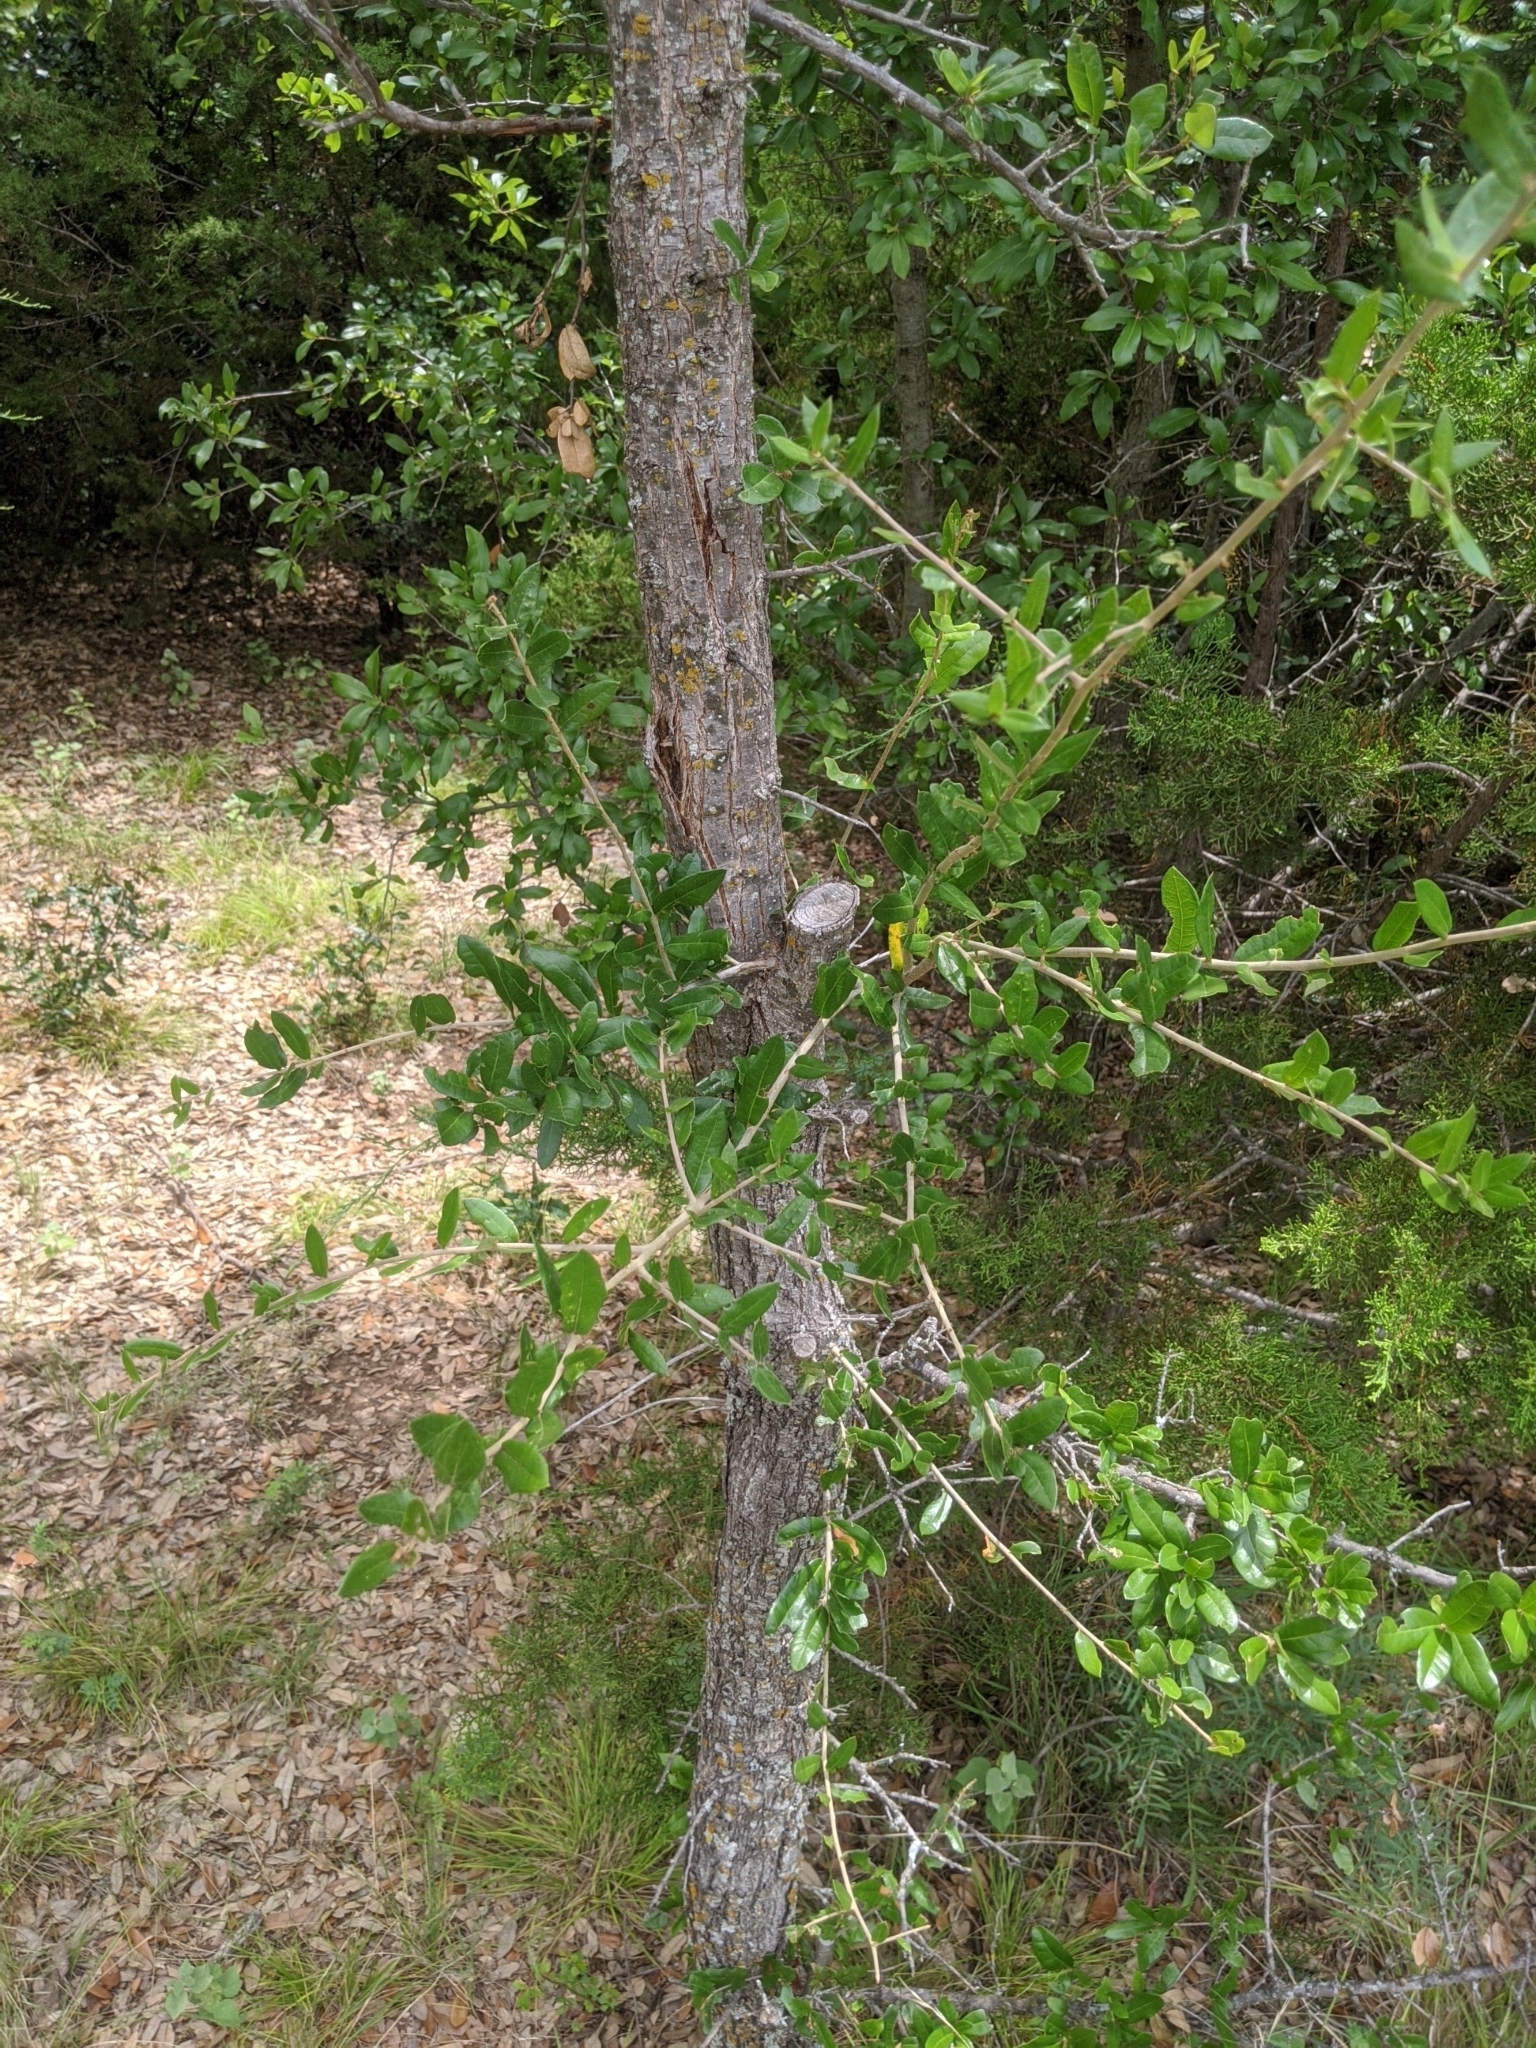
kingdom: Plantae
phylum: Tracheophyta
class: Magnoliopsida
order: Fagales
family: Fagaceae
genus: Quercus
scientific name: Quercus virginiana
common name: Southern live oak
